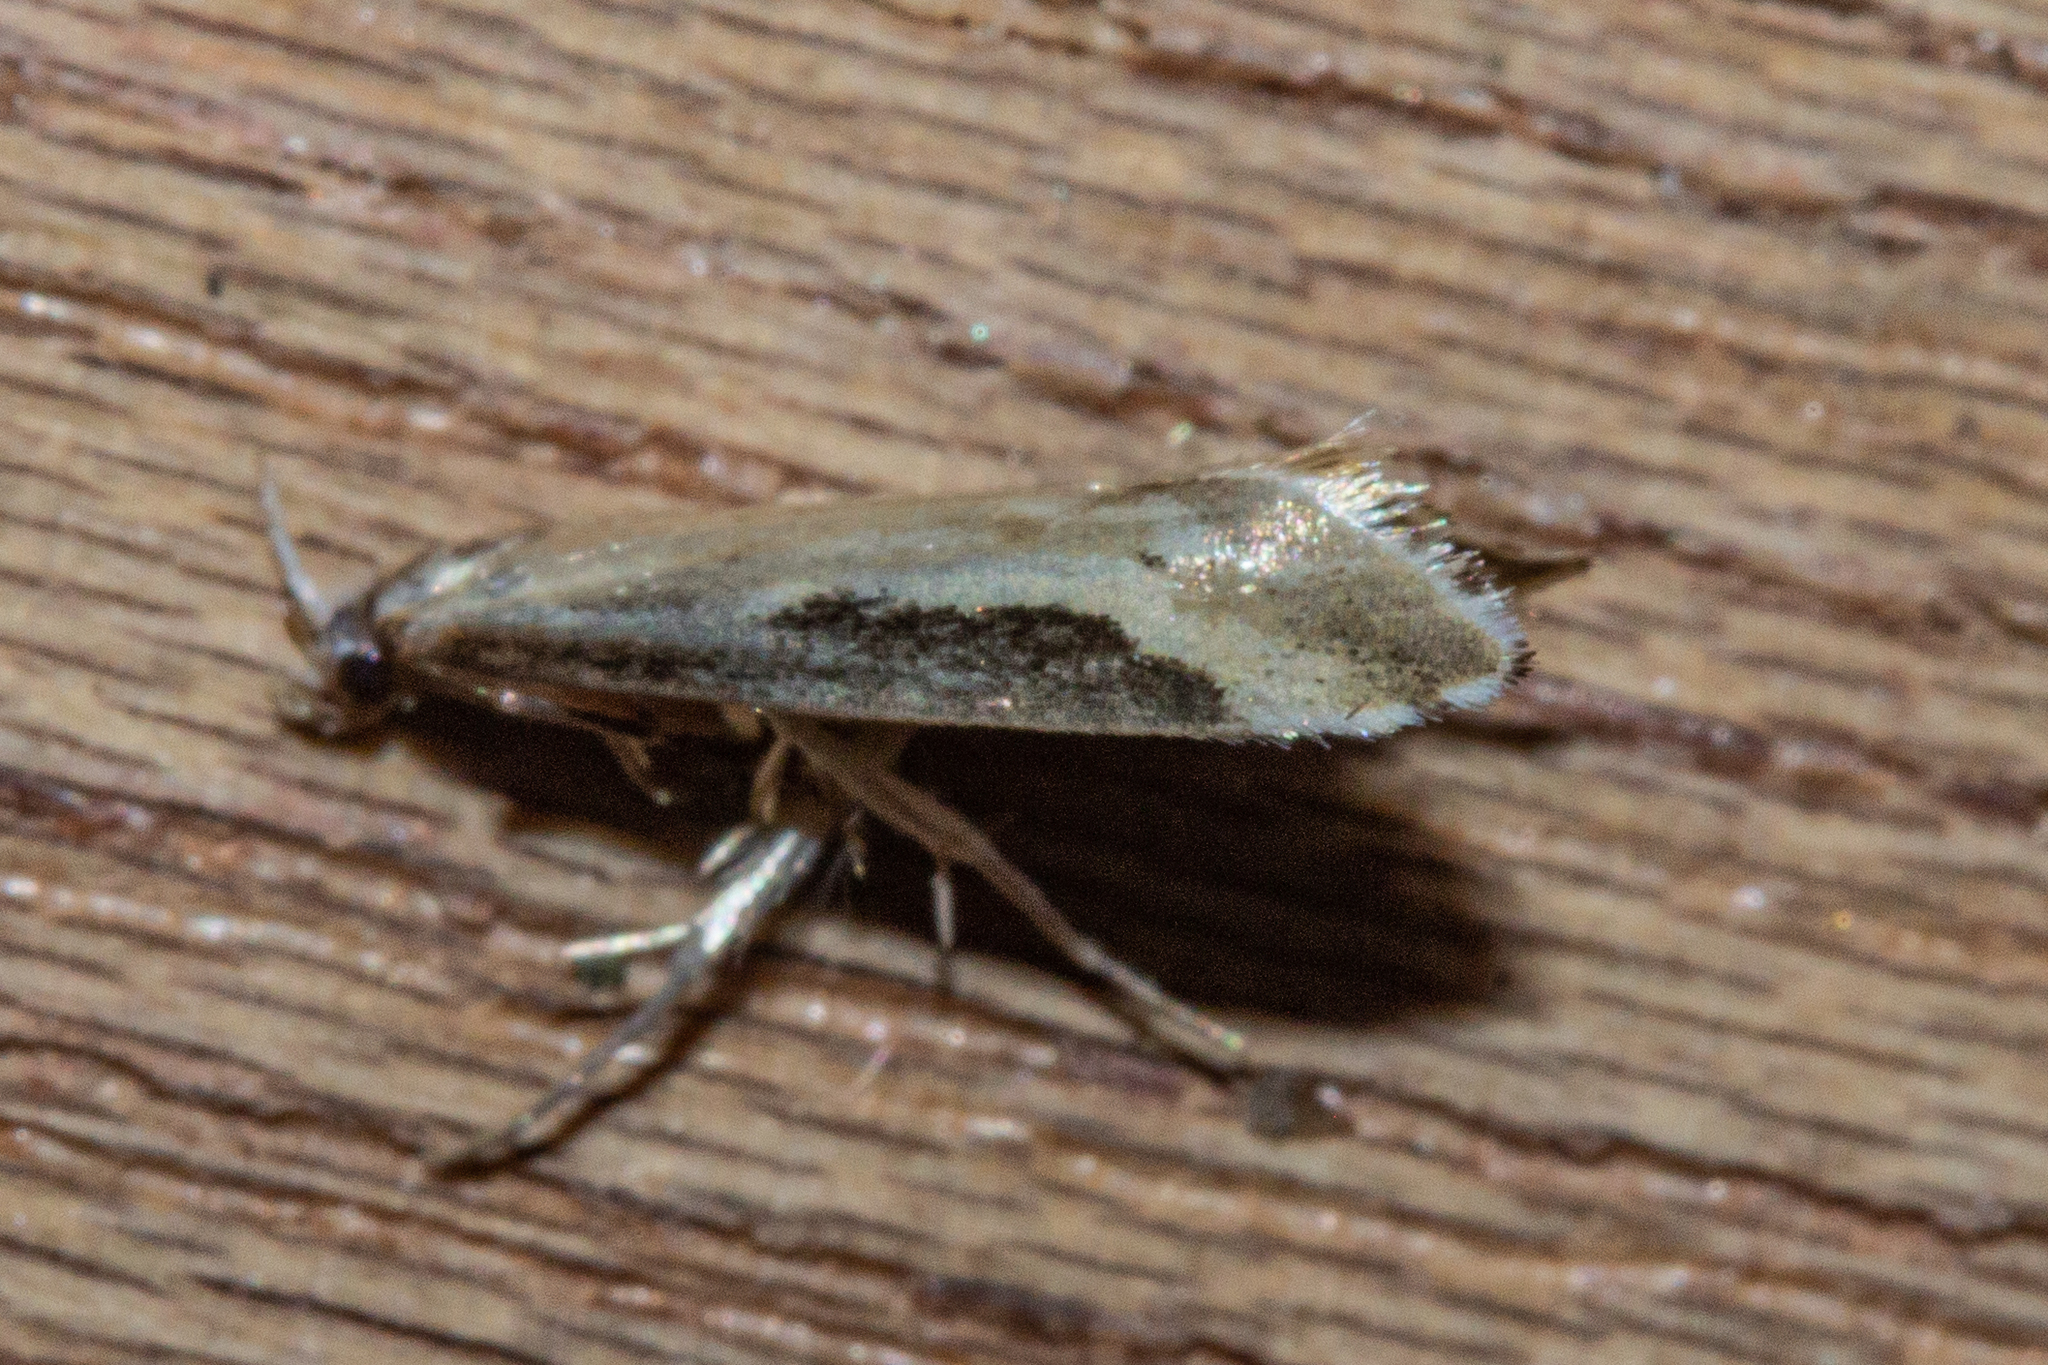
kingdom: Animalia
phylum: Arthropoda
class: Insecta
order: Lepidoptera
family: Tineidae
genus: Sagephora
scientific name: Sagephora phortegella
